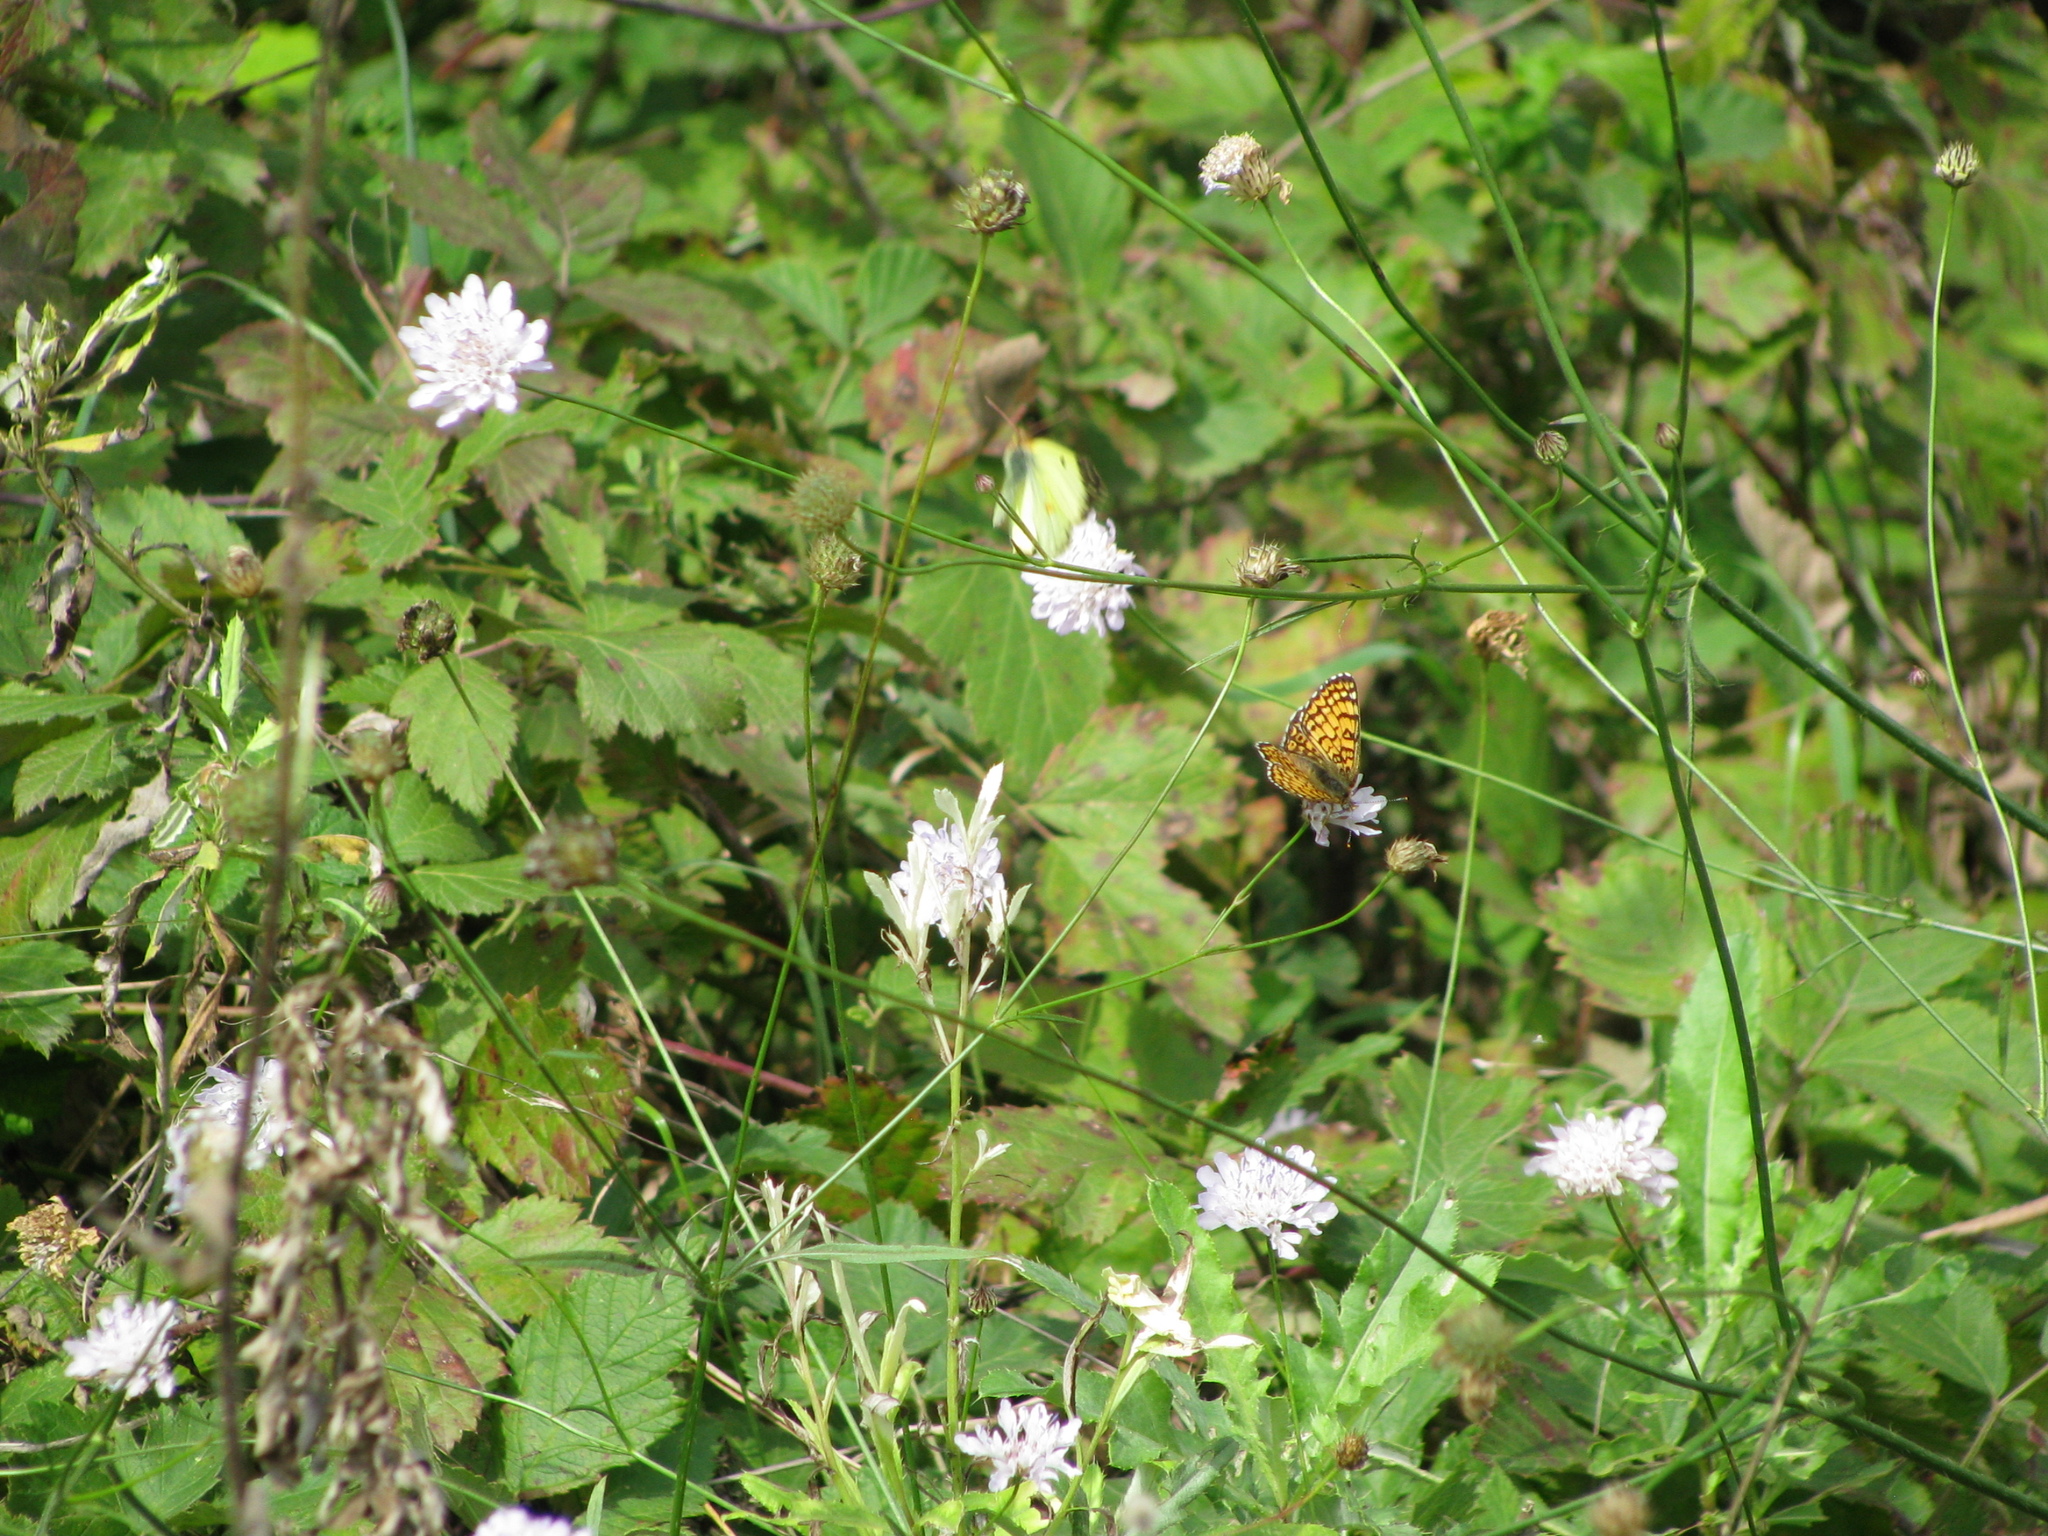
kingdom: Animalia
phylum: Arthropoda
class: Insecta
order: Lepidoptera
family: Nymphalidae
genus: Melitaea
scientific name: Melitaea cinxia
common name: Glanville fritillary
